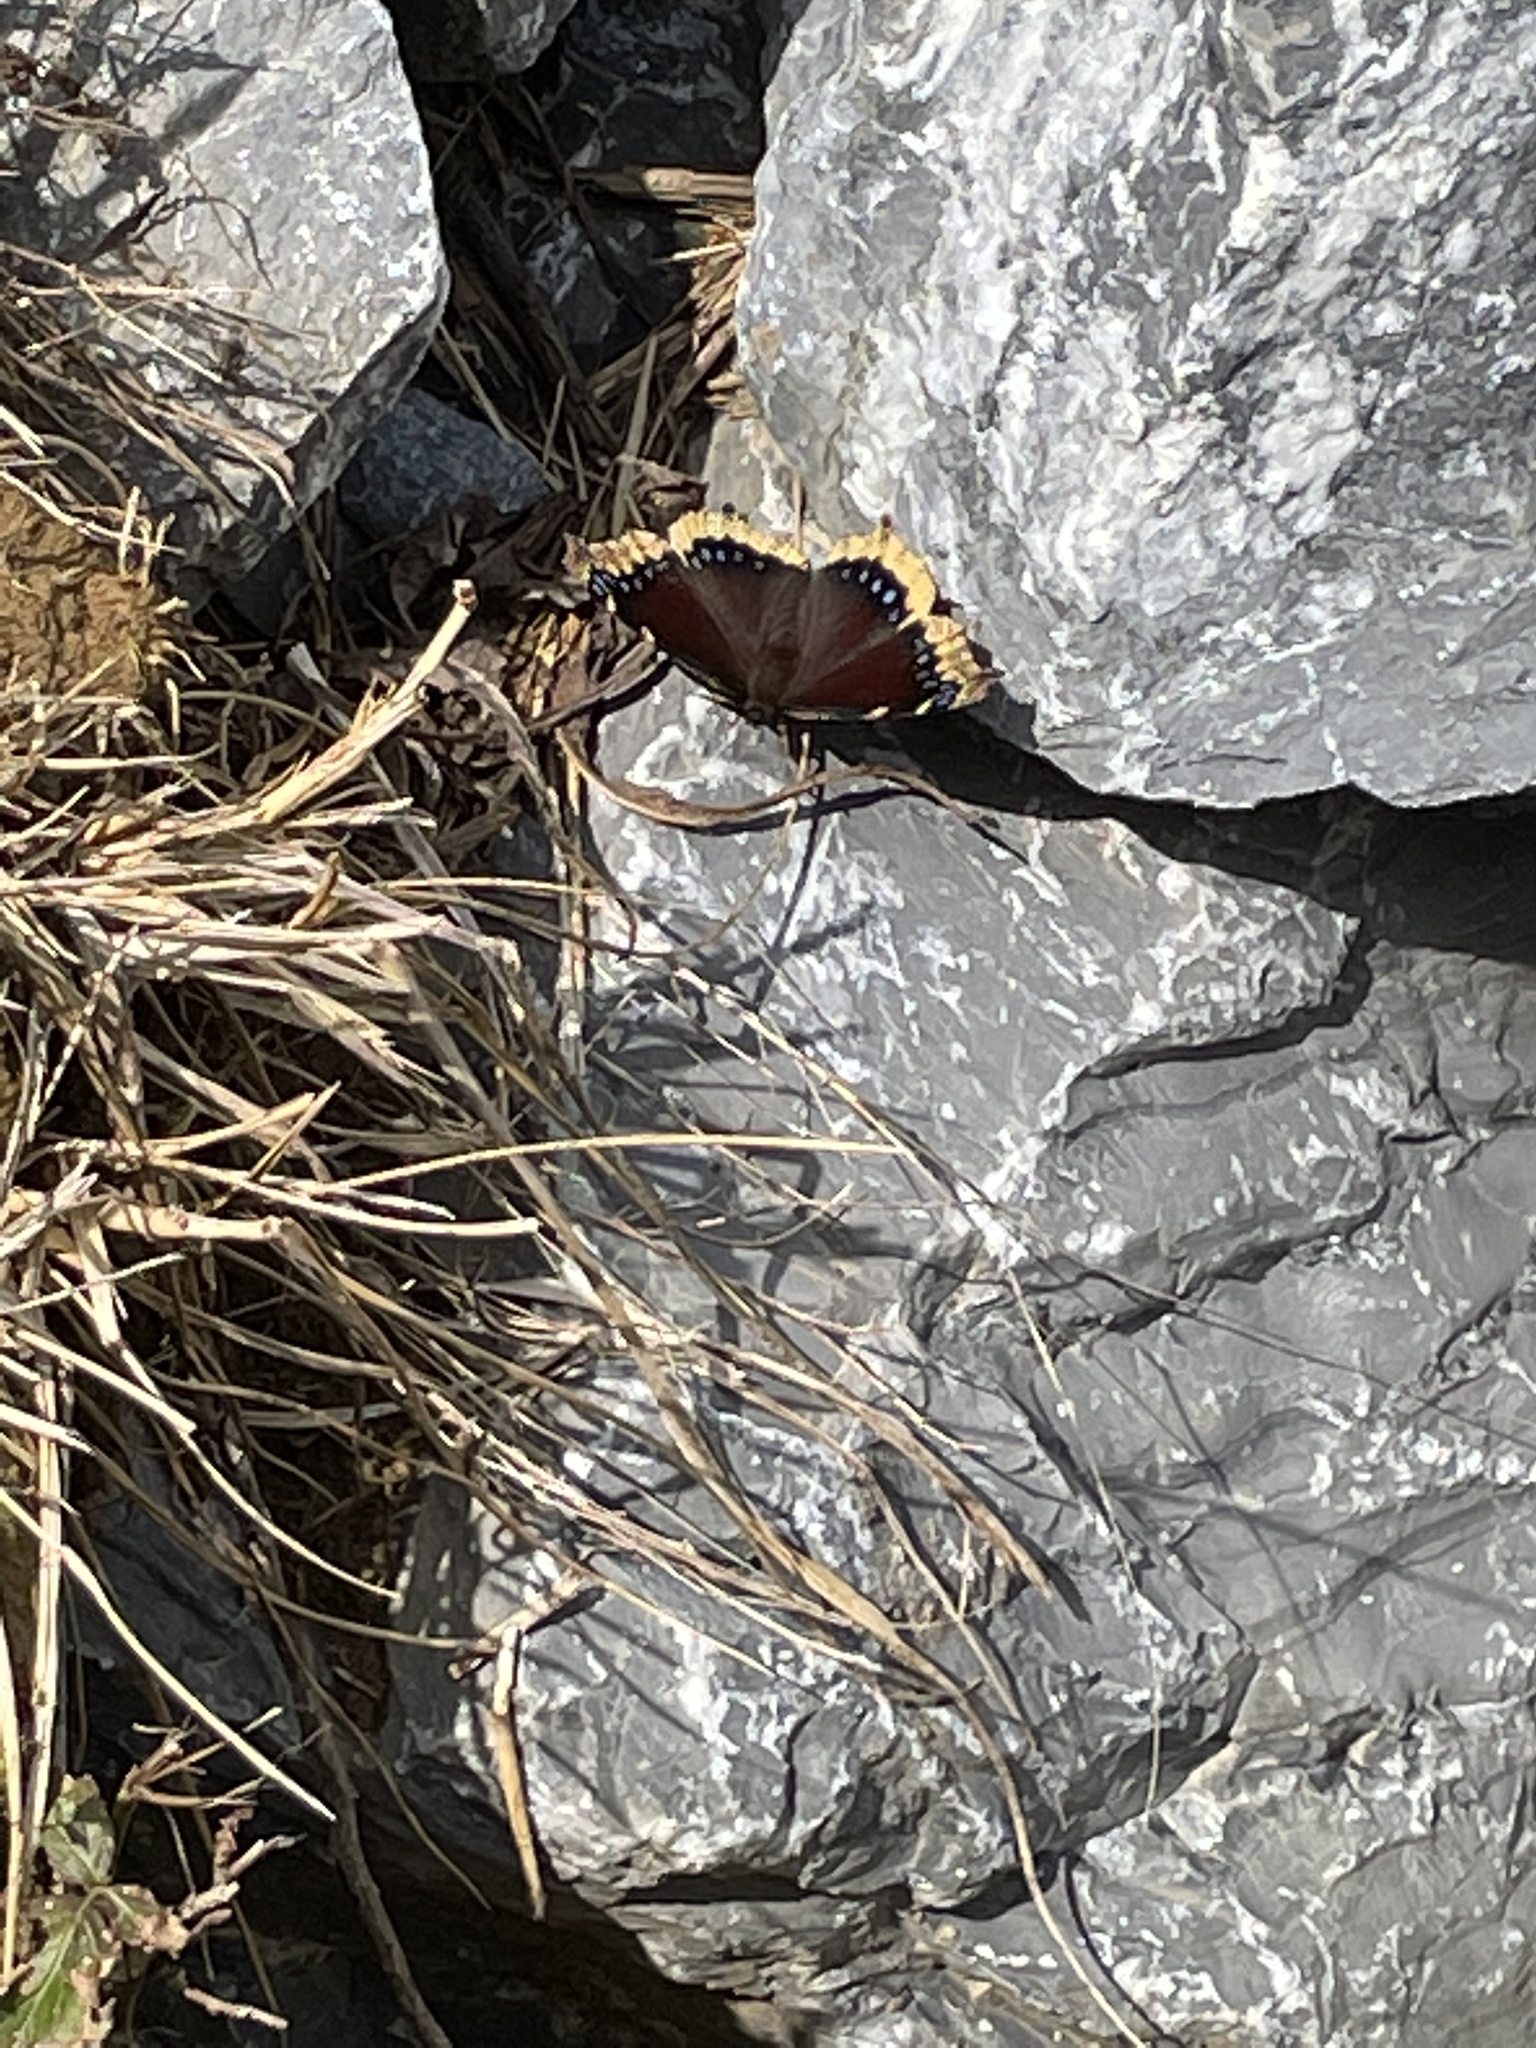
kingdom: Animalia
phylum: Arthropoda
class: Insecta
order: Lepidoptera
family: Nymphalidae
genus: Nymphalis
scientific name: Nymphalis antiopa
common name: Camberwell beauty
